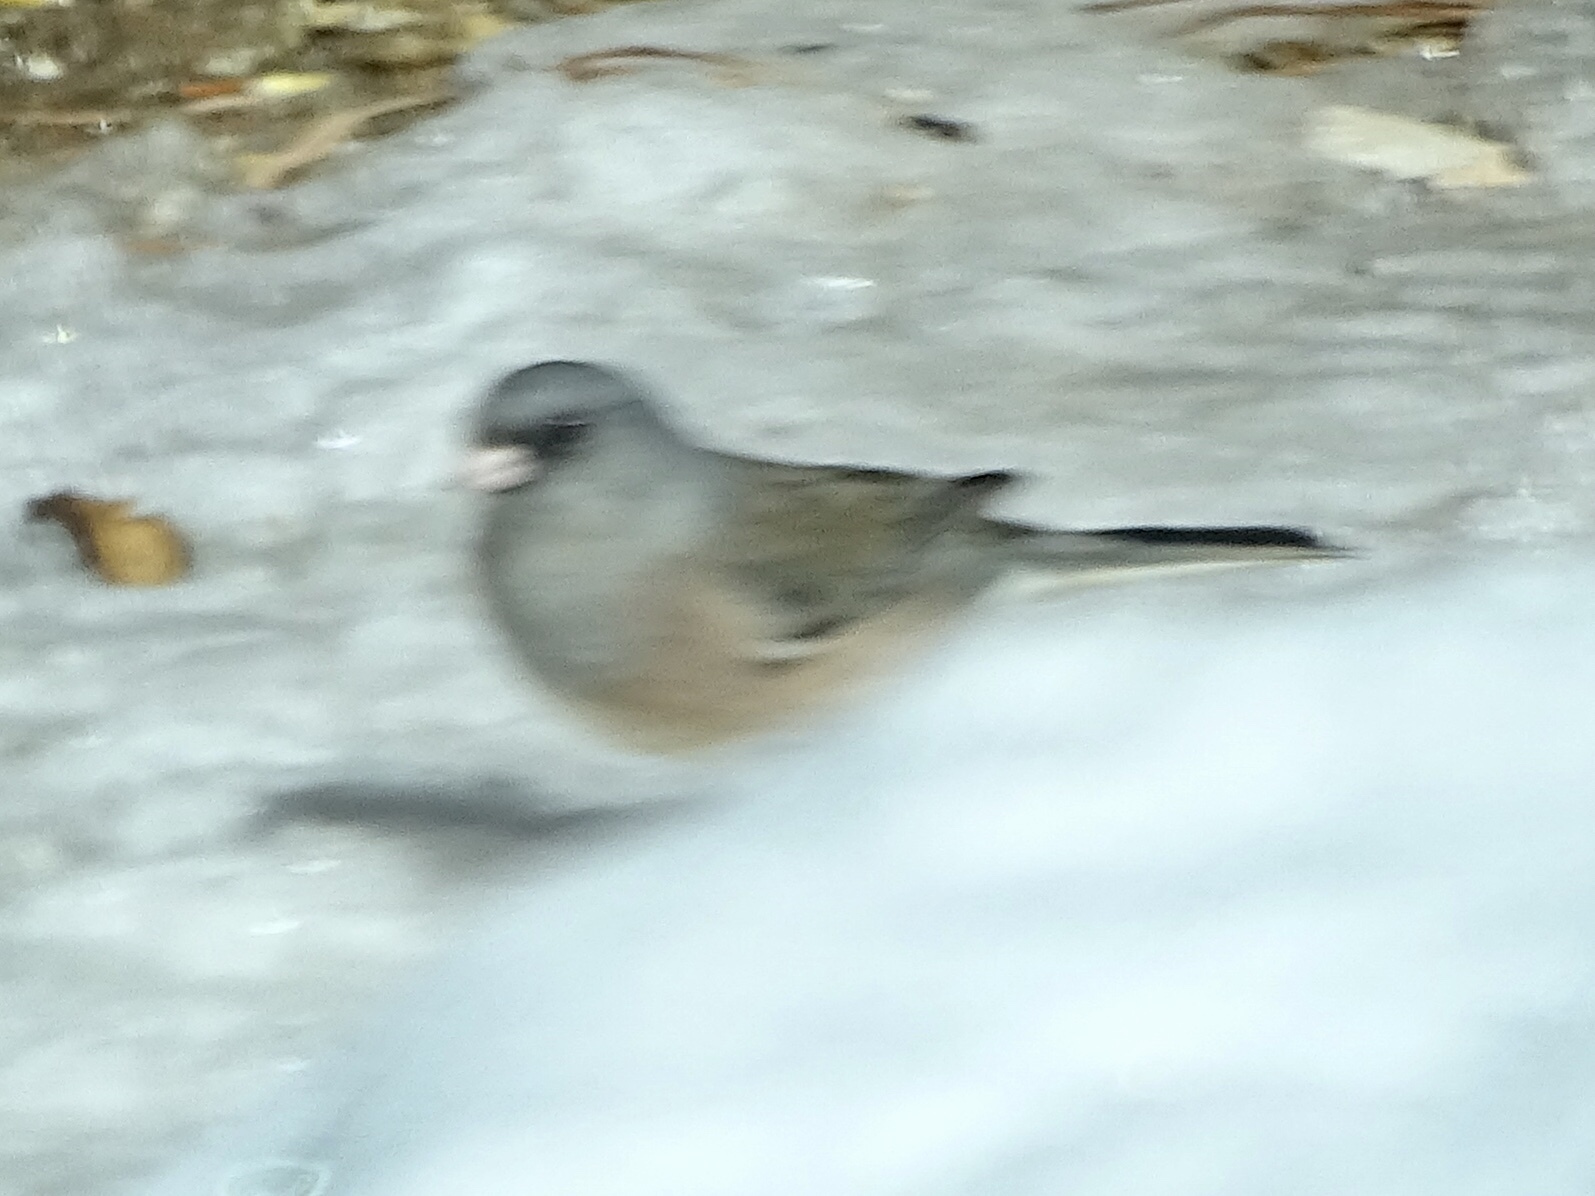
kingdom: Animalia
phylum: Chordata
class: Aves
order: Passeriformes
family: Passerellidae
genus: Junco
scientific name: Junco hyemalis
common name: Dark-eyed junco
